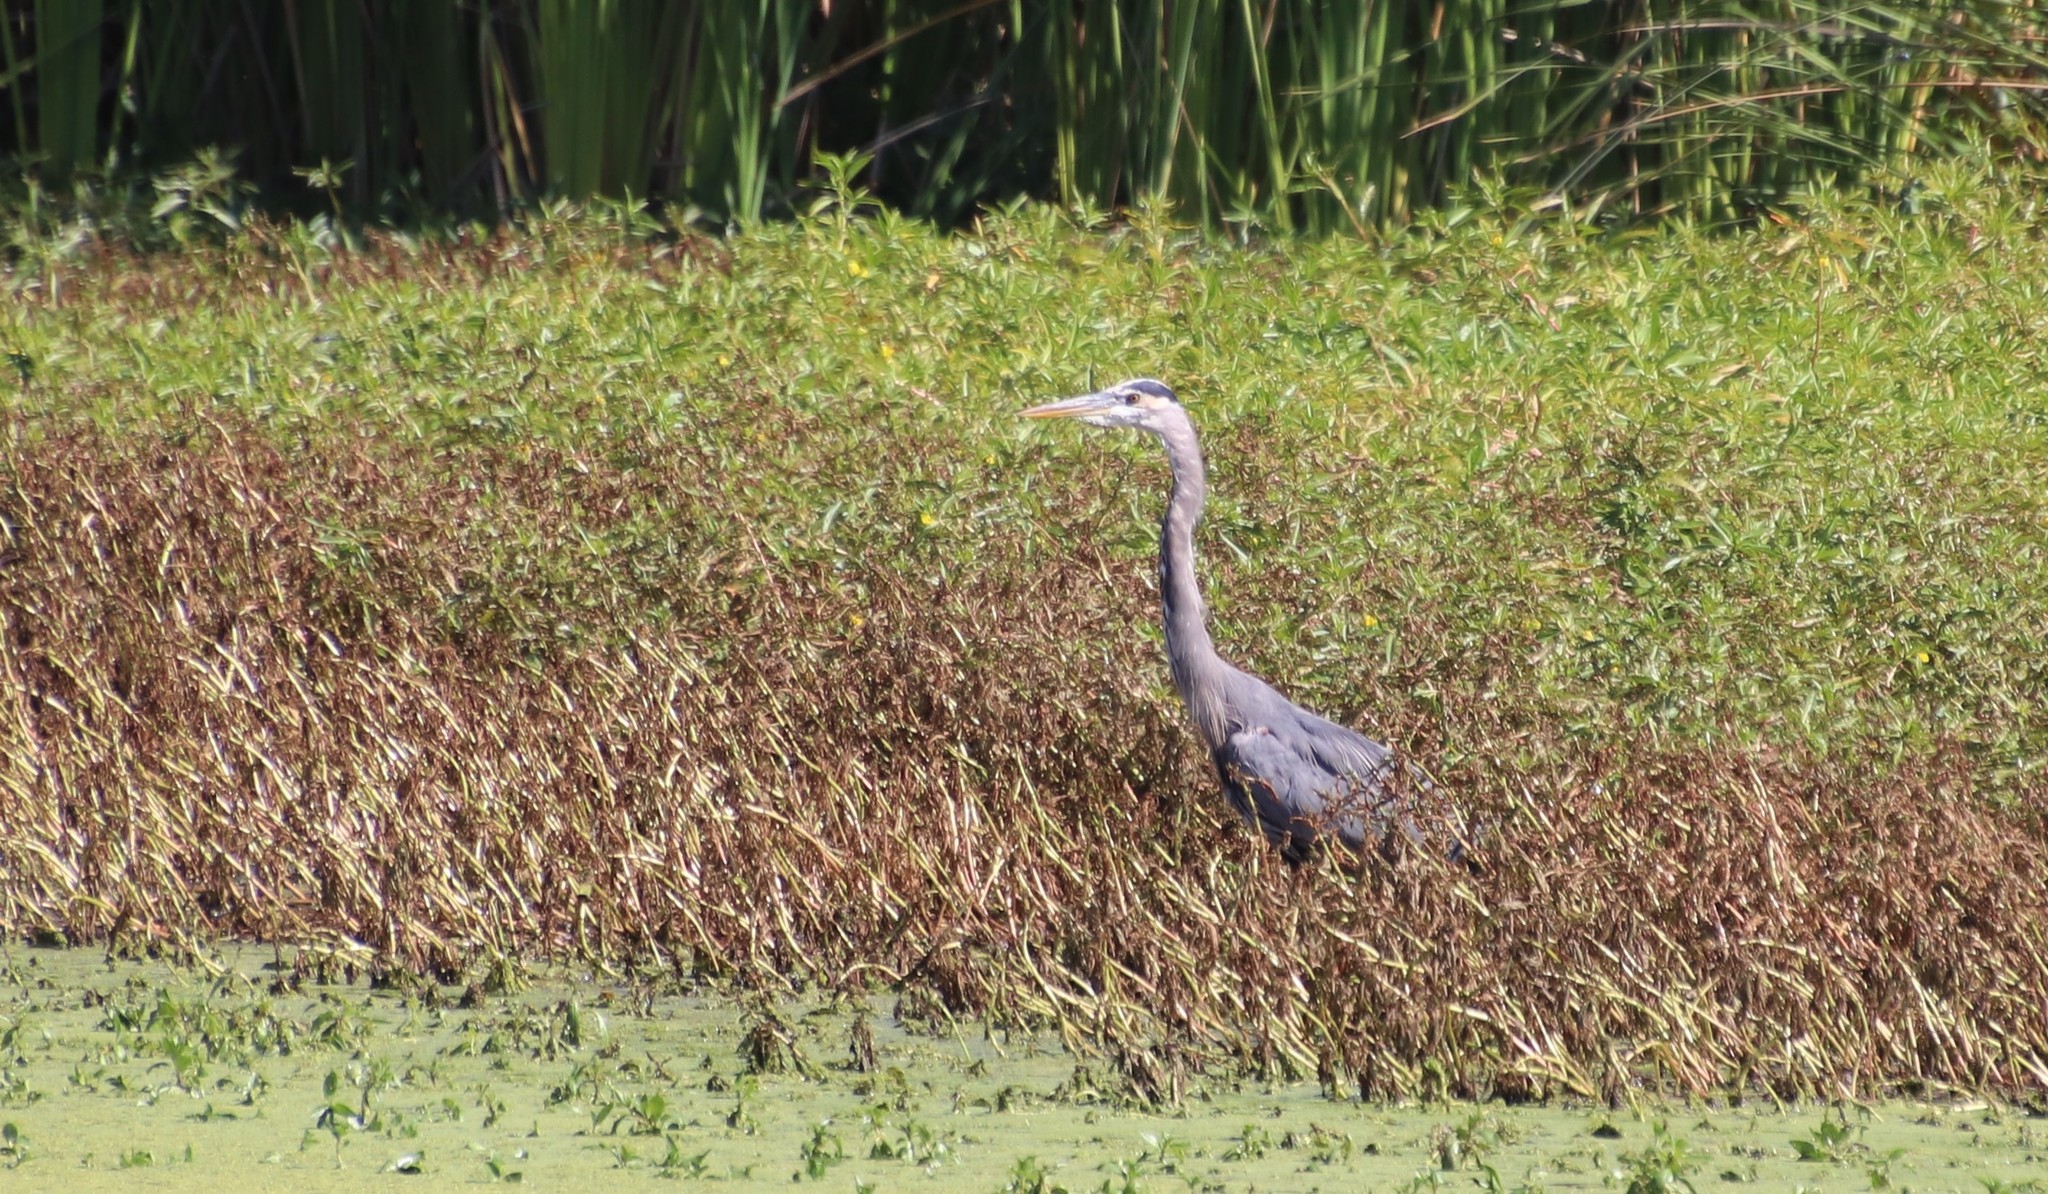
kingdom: Animalia
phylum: Chordata
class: Aves
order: Pelecaniformes
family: Ardeidae
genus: Ardea
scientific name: Ardea herodias
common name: Great blue heron
